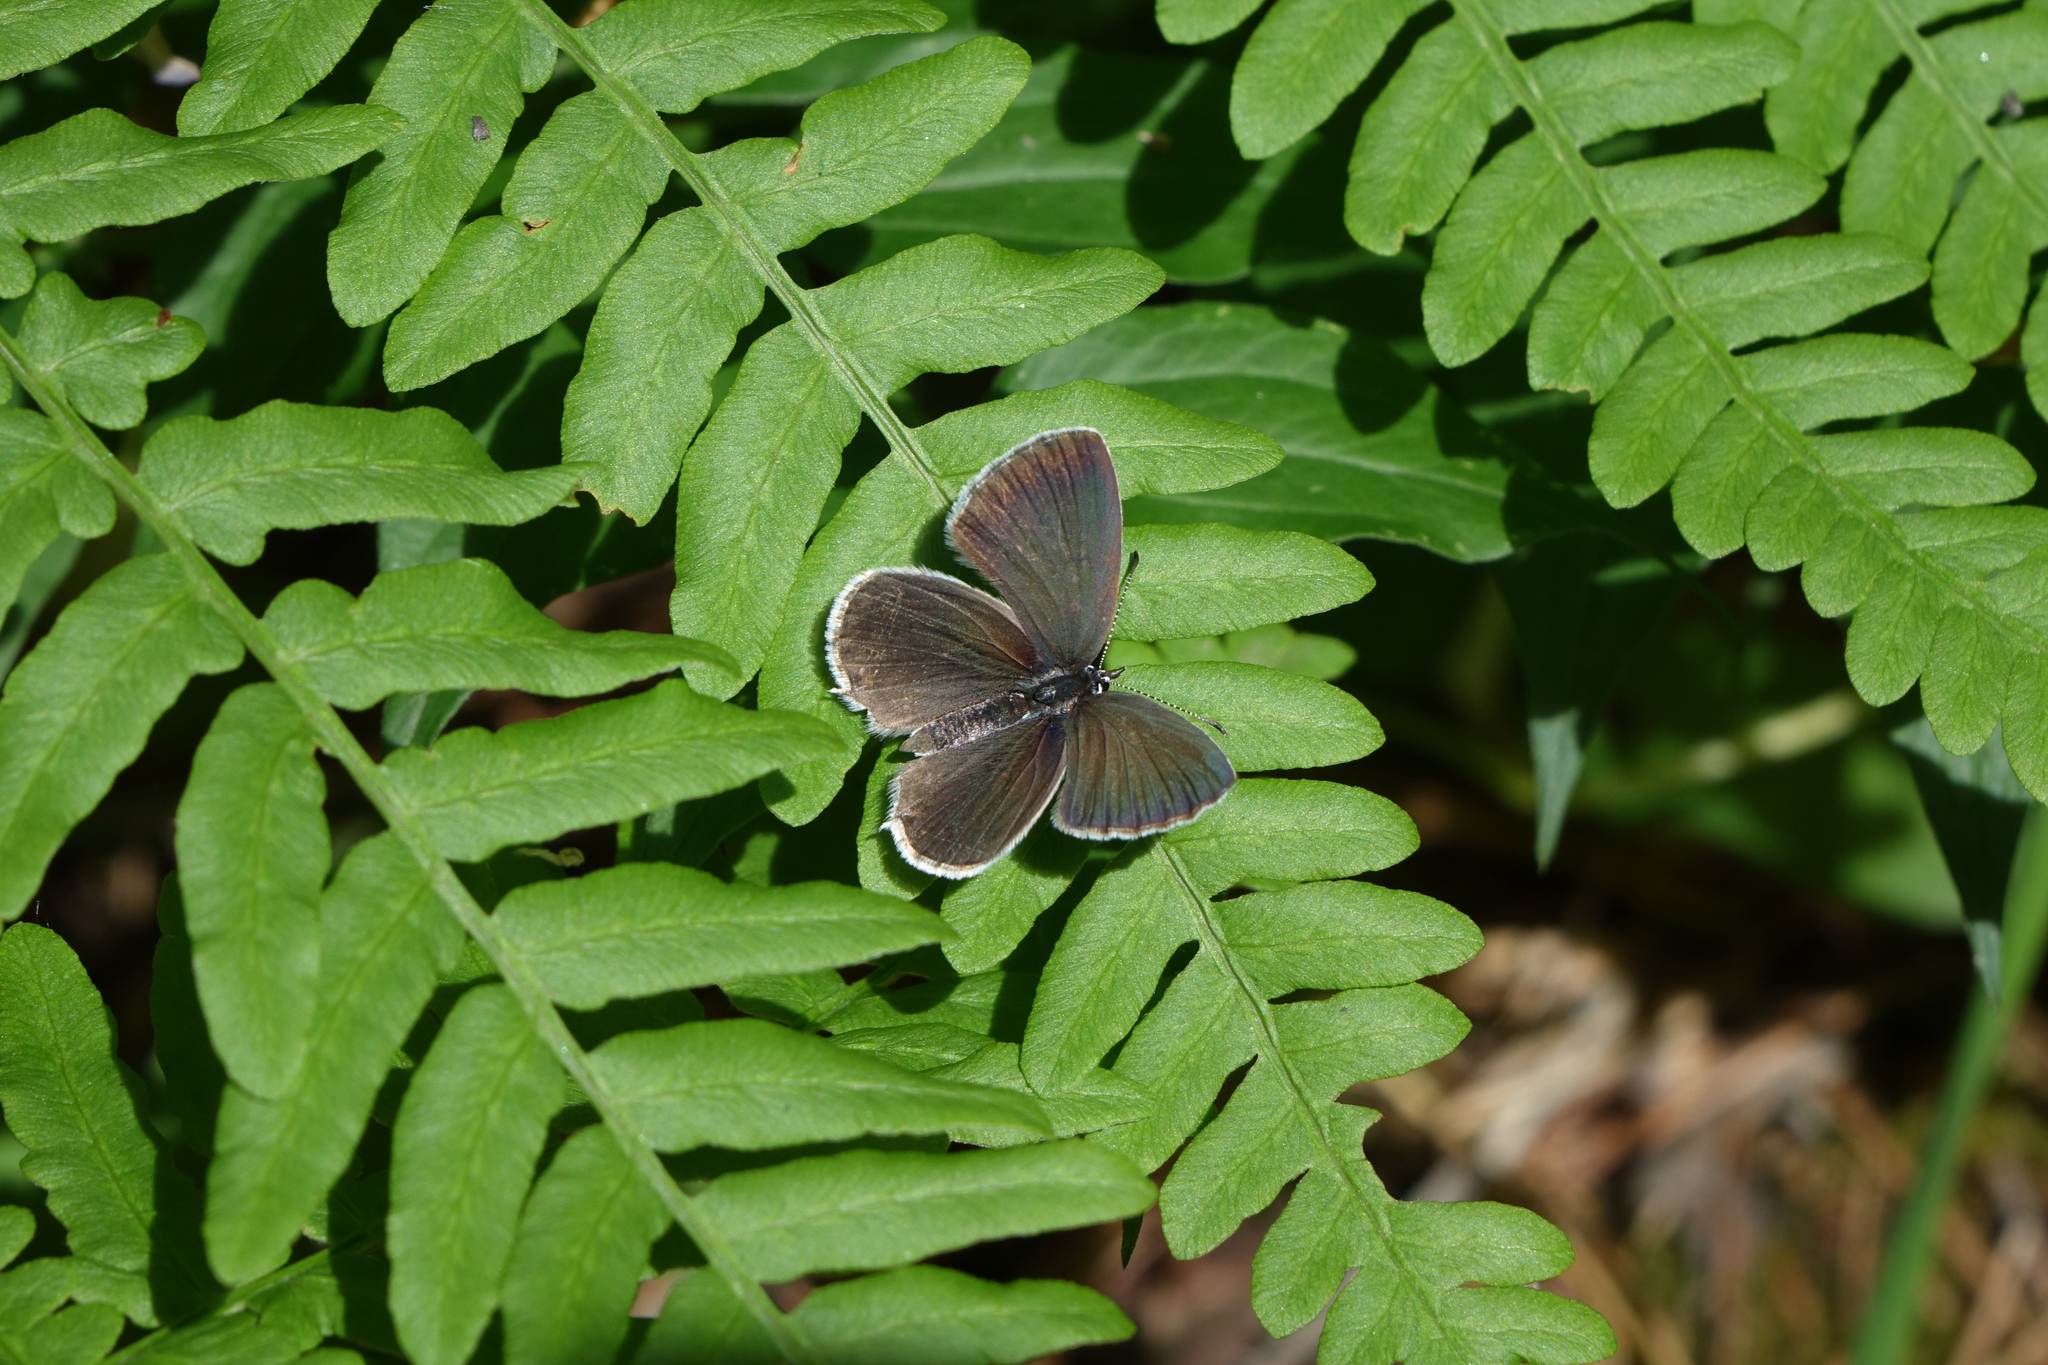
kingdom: Plantae
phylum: Tracheophyta
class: Polypodiopsida
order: Polypodiales
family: Dennstaedtiaceae
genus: Pteridium
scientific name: Pteridium aquilinum
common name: Bracken
